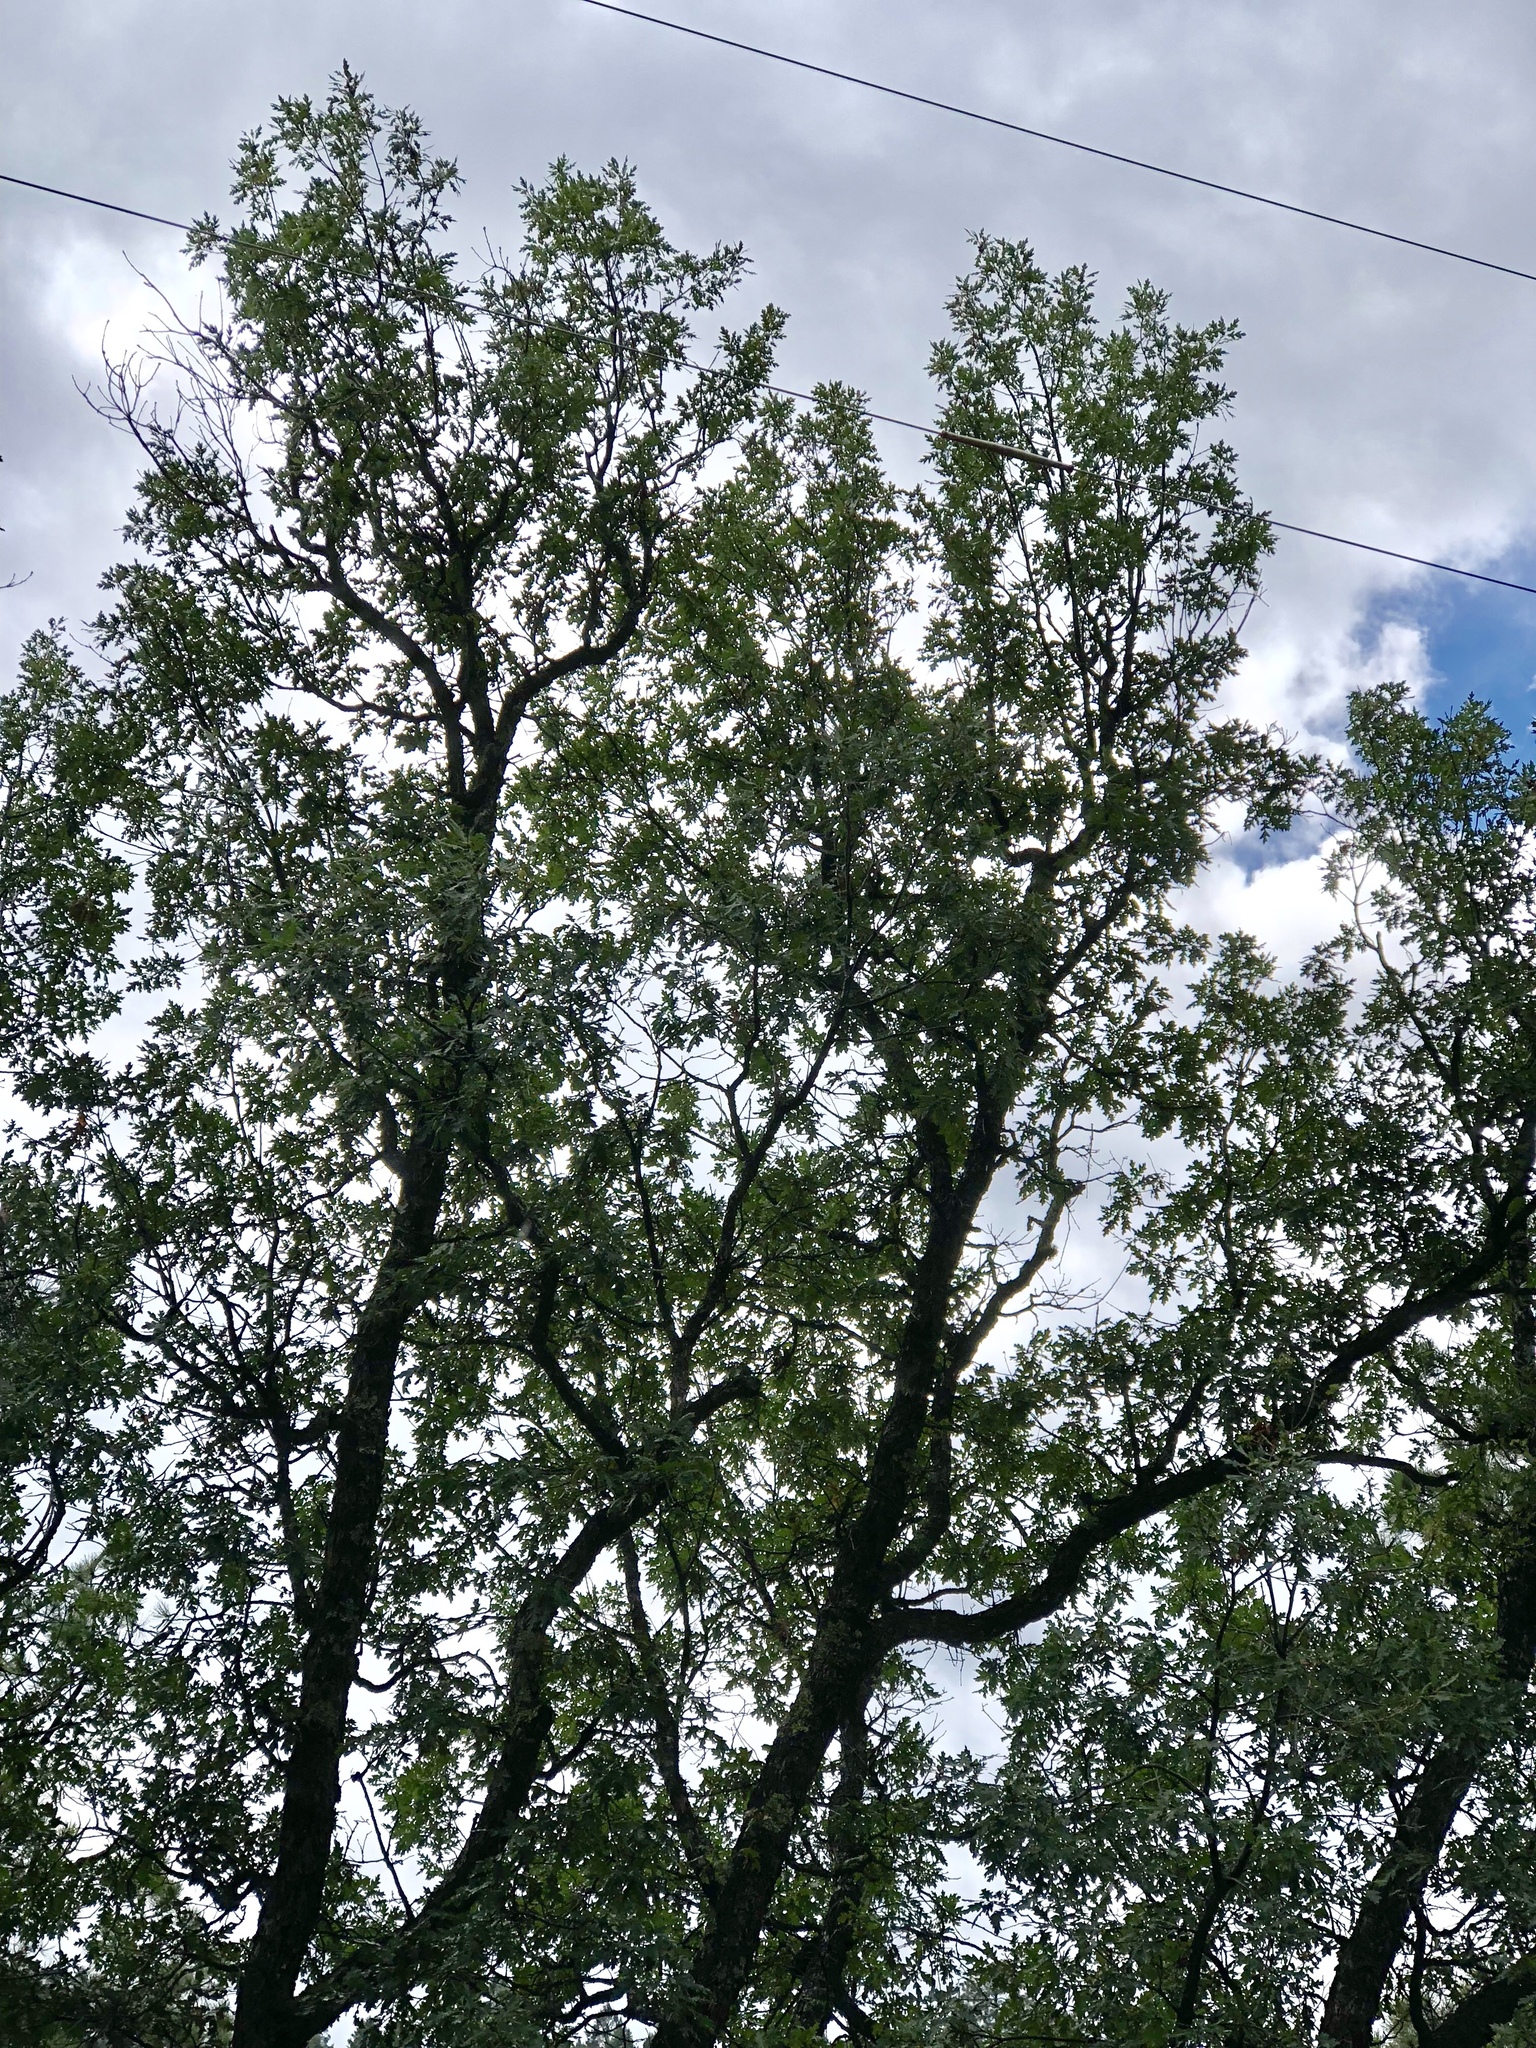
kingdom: Plantae
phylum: Tracheophyta
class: Magnoliopsida
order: Fagales
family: Fagaceae
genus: Quercus
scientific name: Quercus gambelii
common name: Gambel oak
